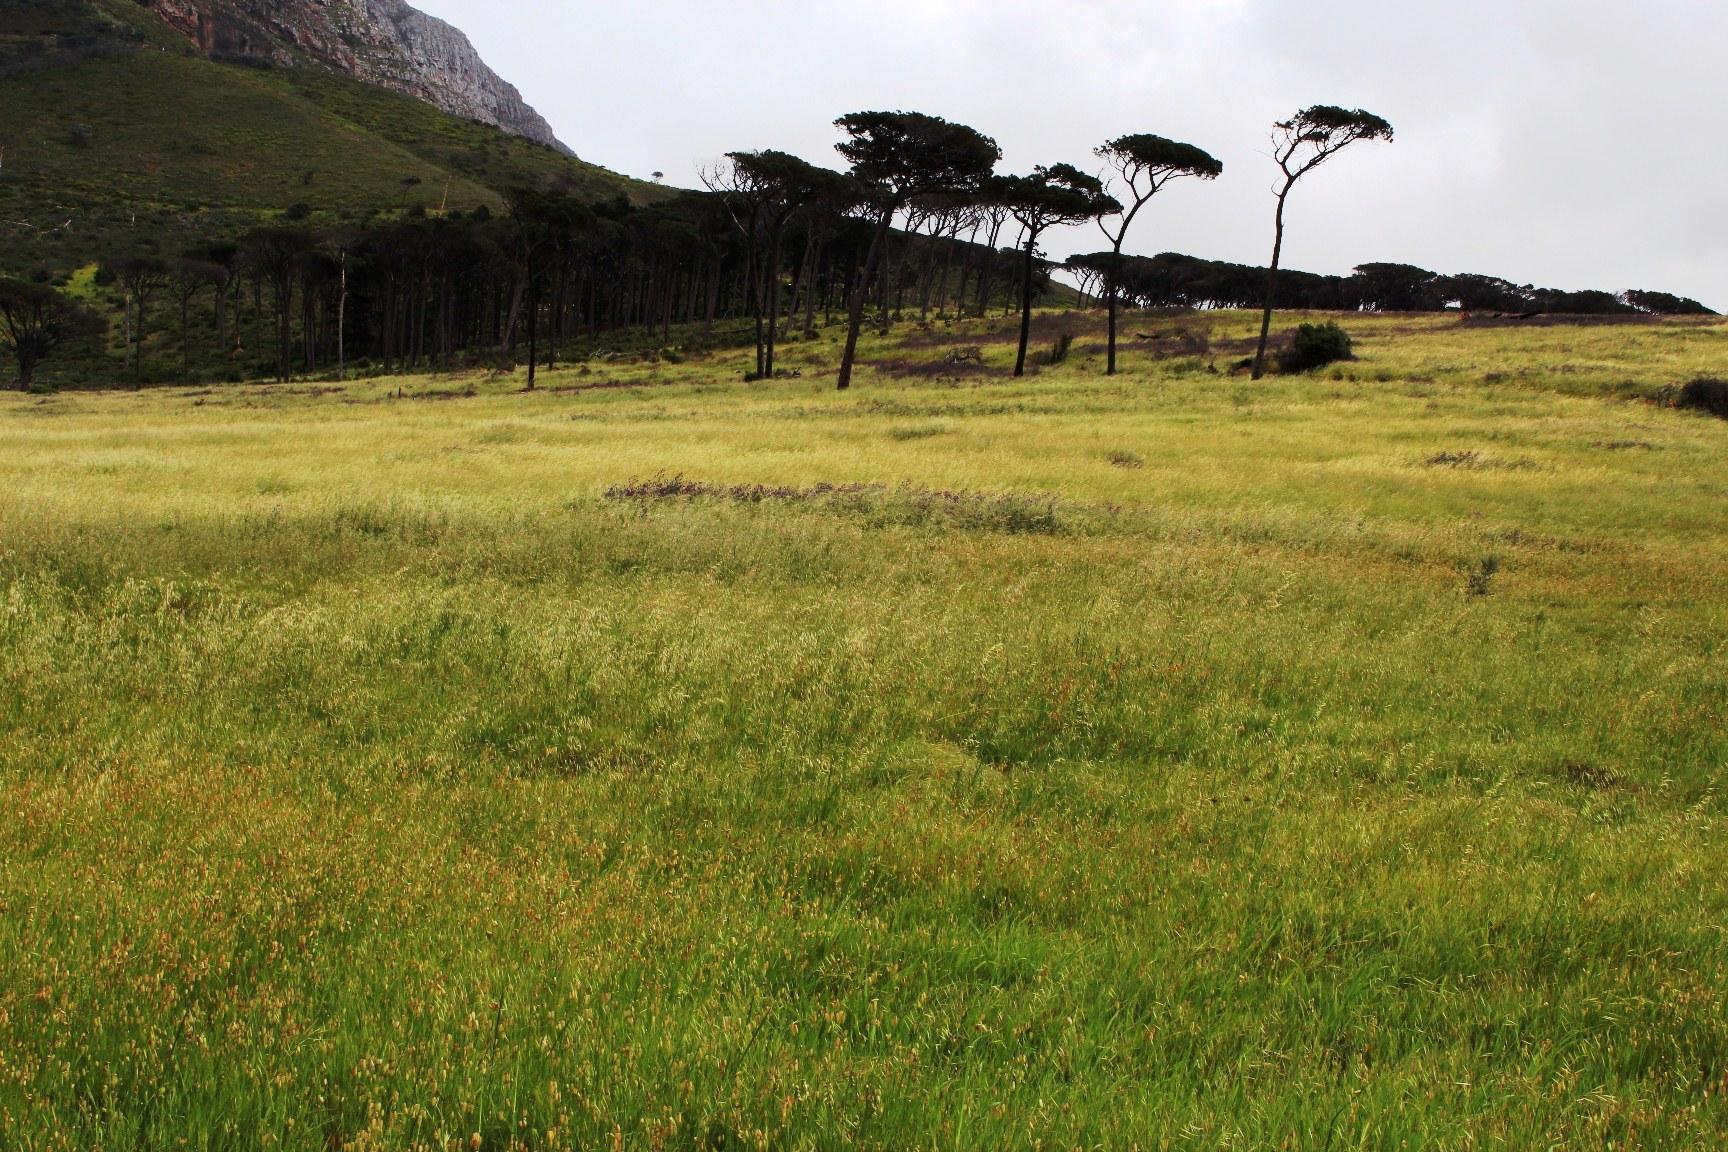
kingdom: Plantae
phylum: Tracheophyta
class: Liliopsida
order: Poales
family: Poaceae
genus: Avena
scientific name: Avena fatua
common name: Wild oat
